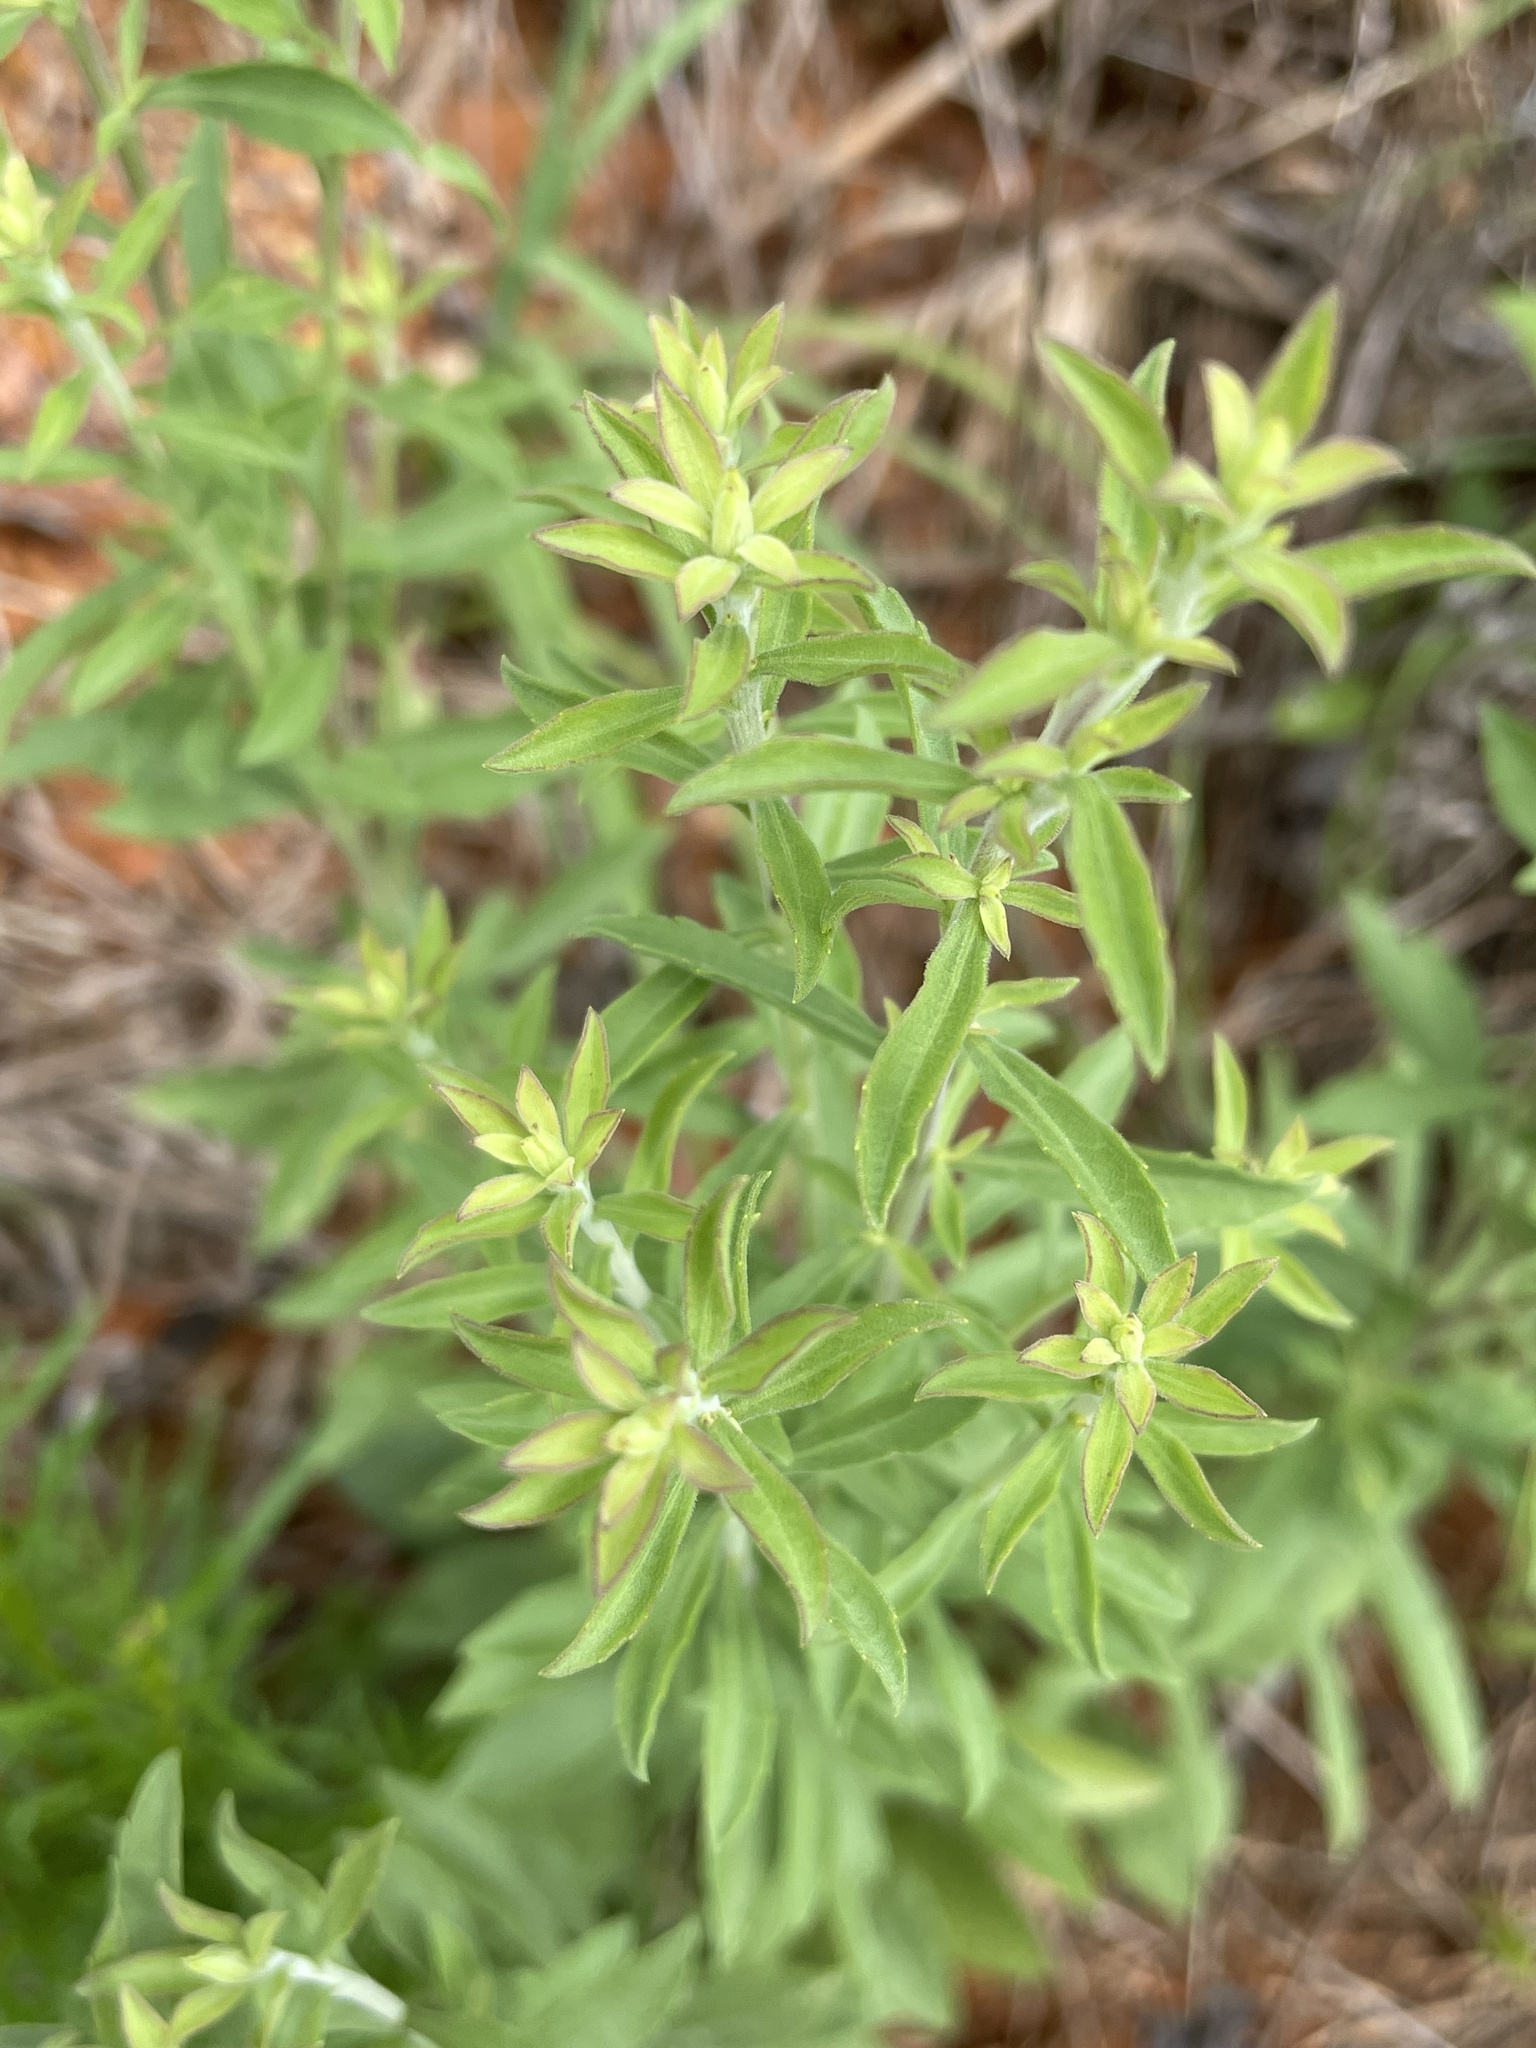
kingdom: Plantae
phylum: Tracheophyta
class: Magnoliopsida
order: Asterales
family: Asteraceae
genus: Solidago
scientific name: Solidago nemoralis
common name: Grey goldenrod
